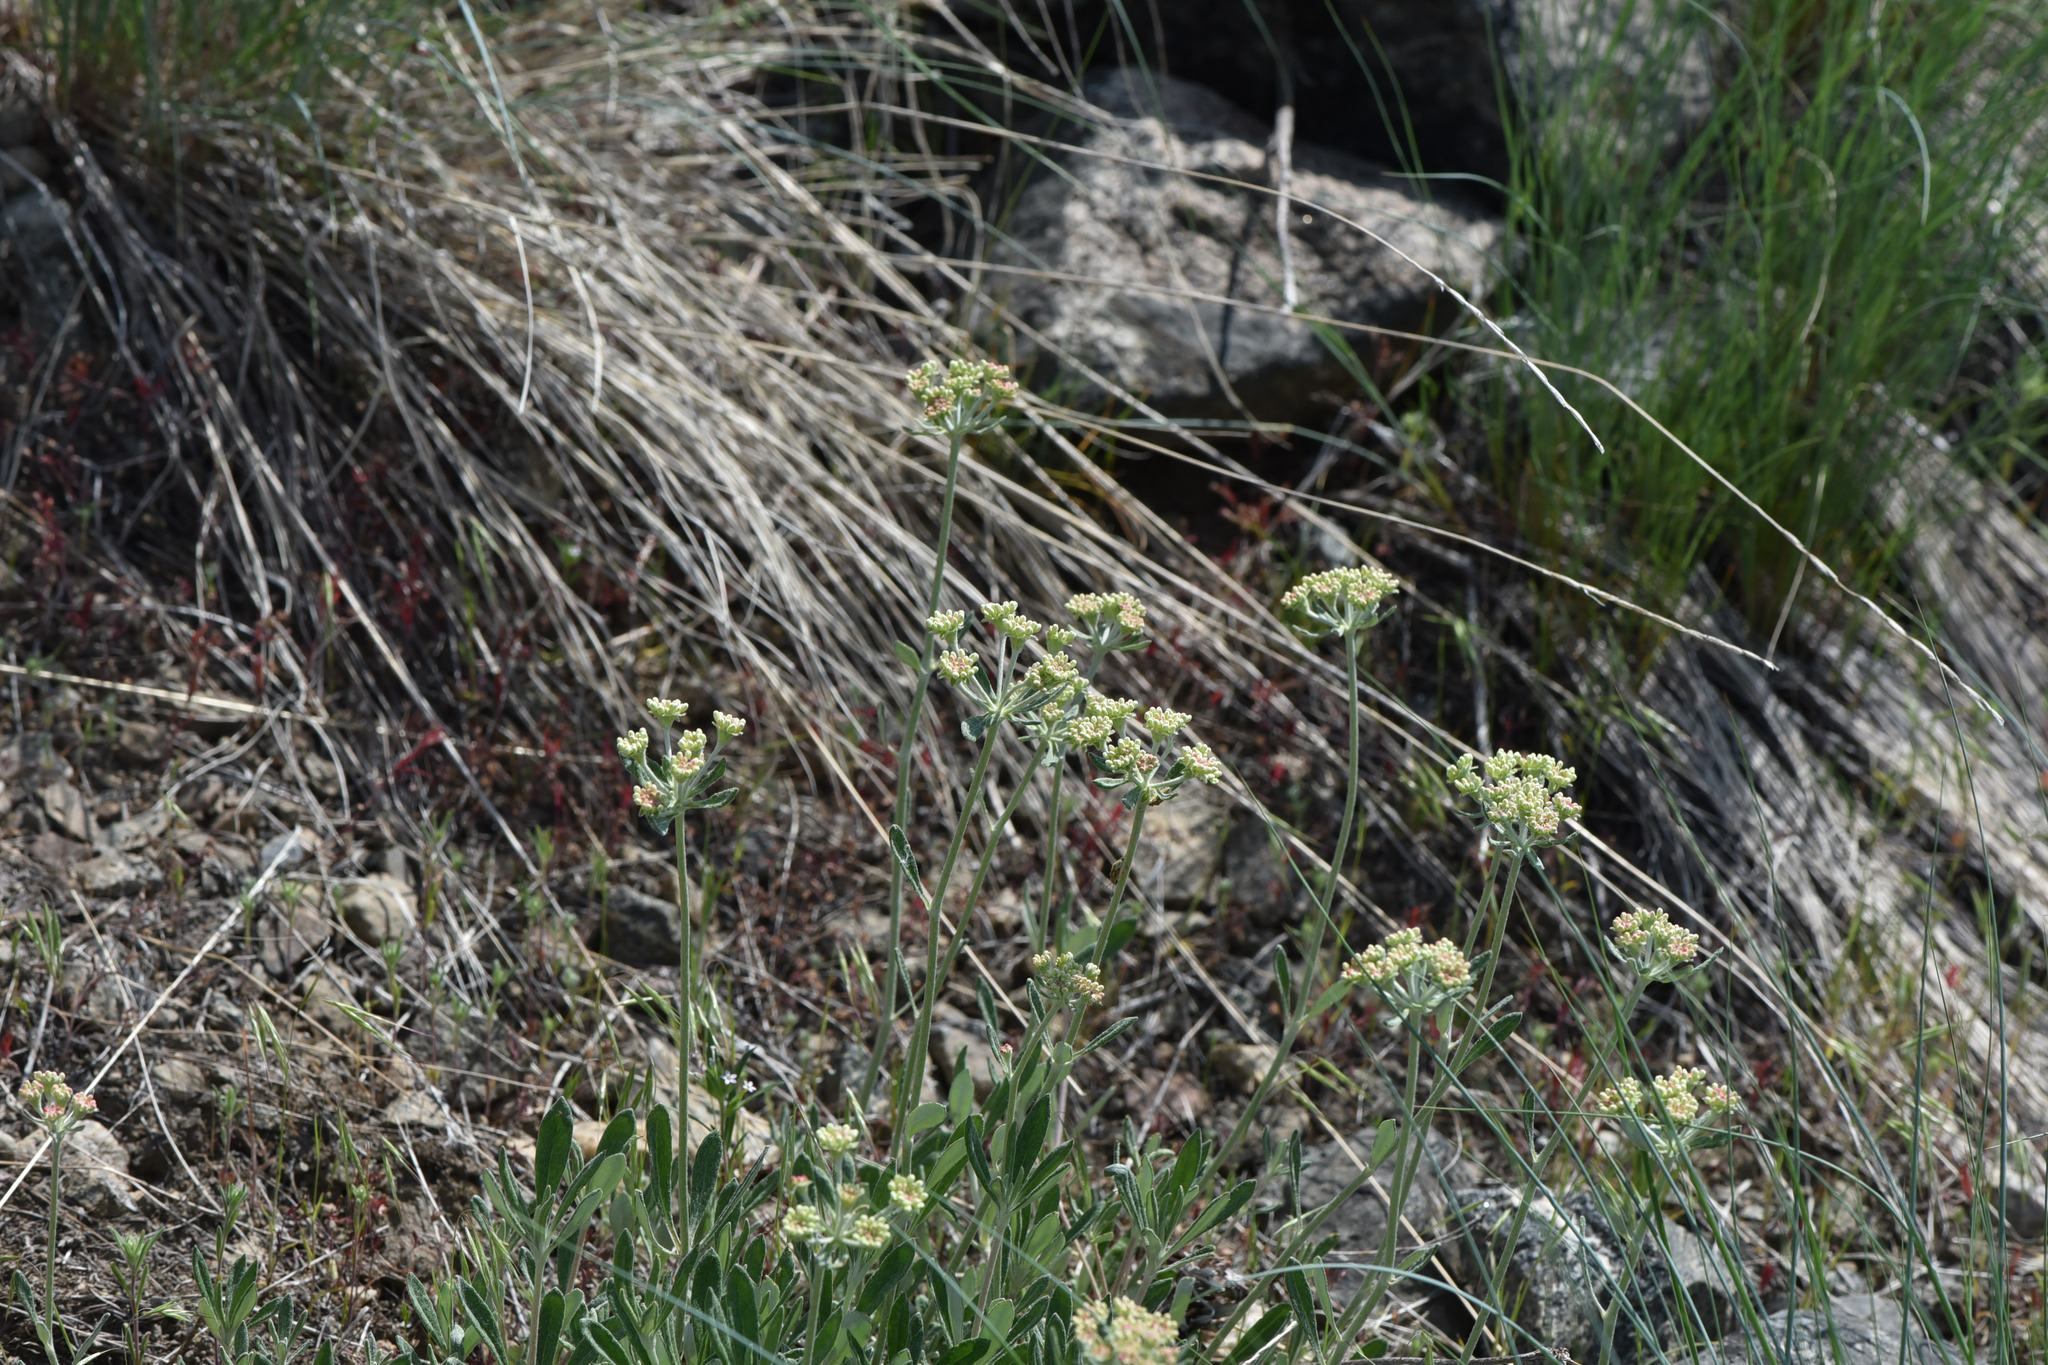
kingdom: Plantae
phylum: Tracheophyta
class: Magnoliopsida
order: Caryophyllales
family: Polygonaceae
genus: Eriogonum
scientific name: Eriogonum heracleoides
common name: Wyeth's buckwheat
